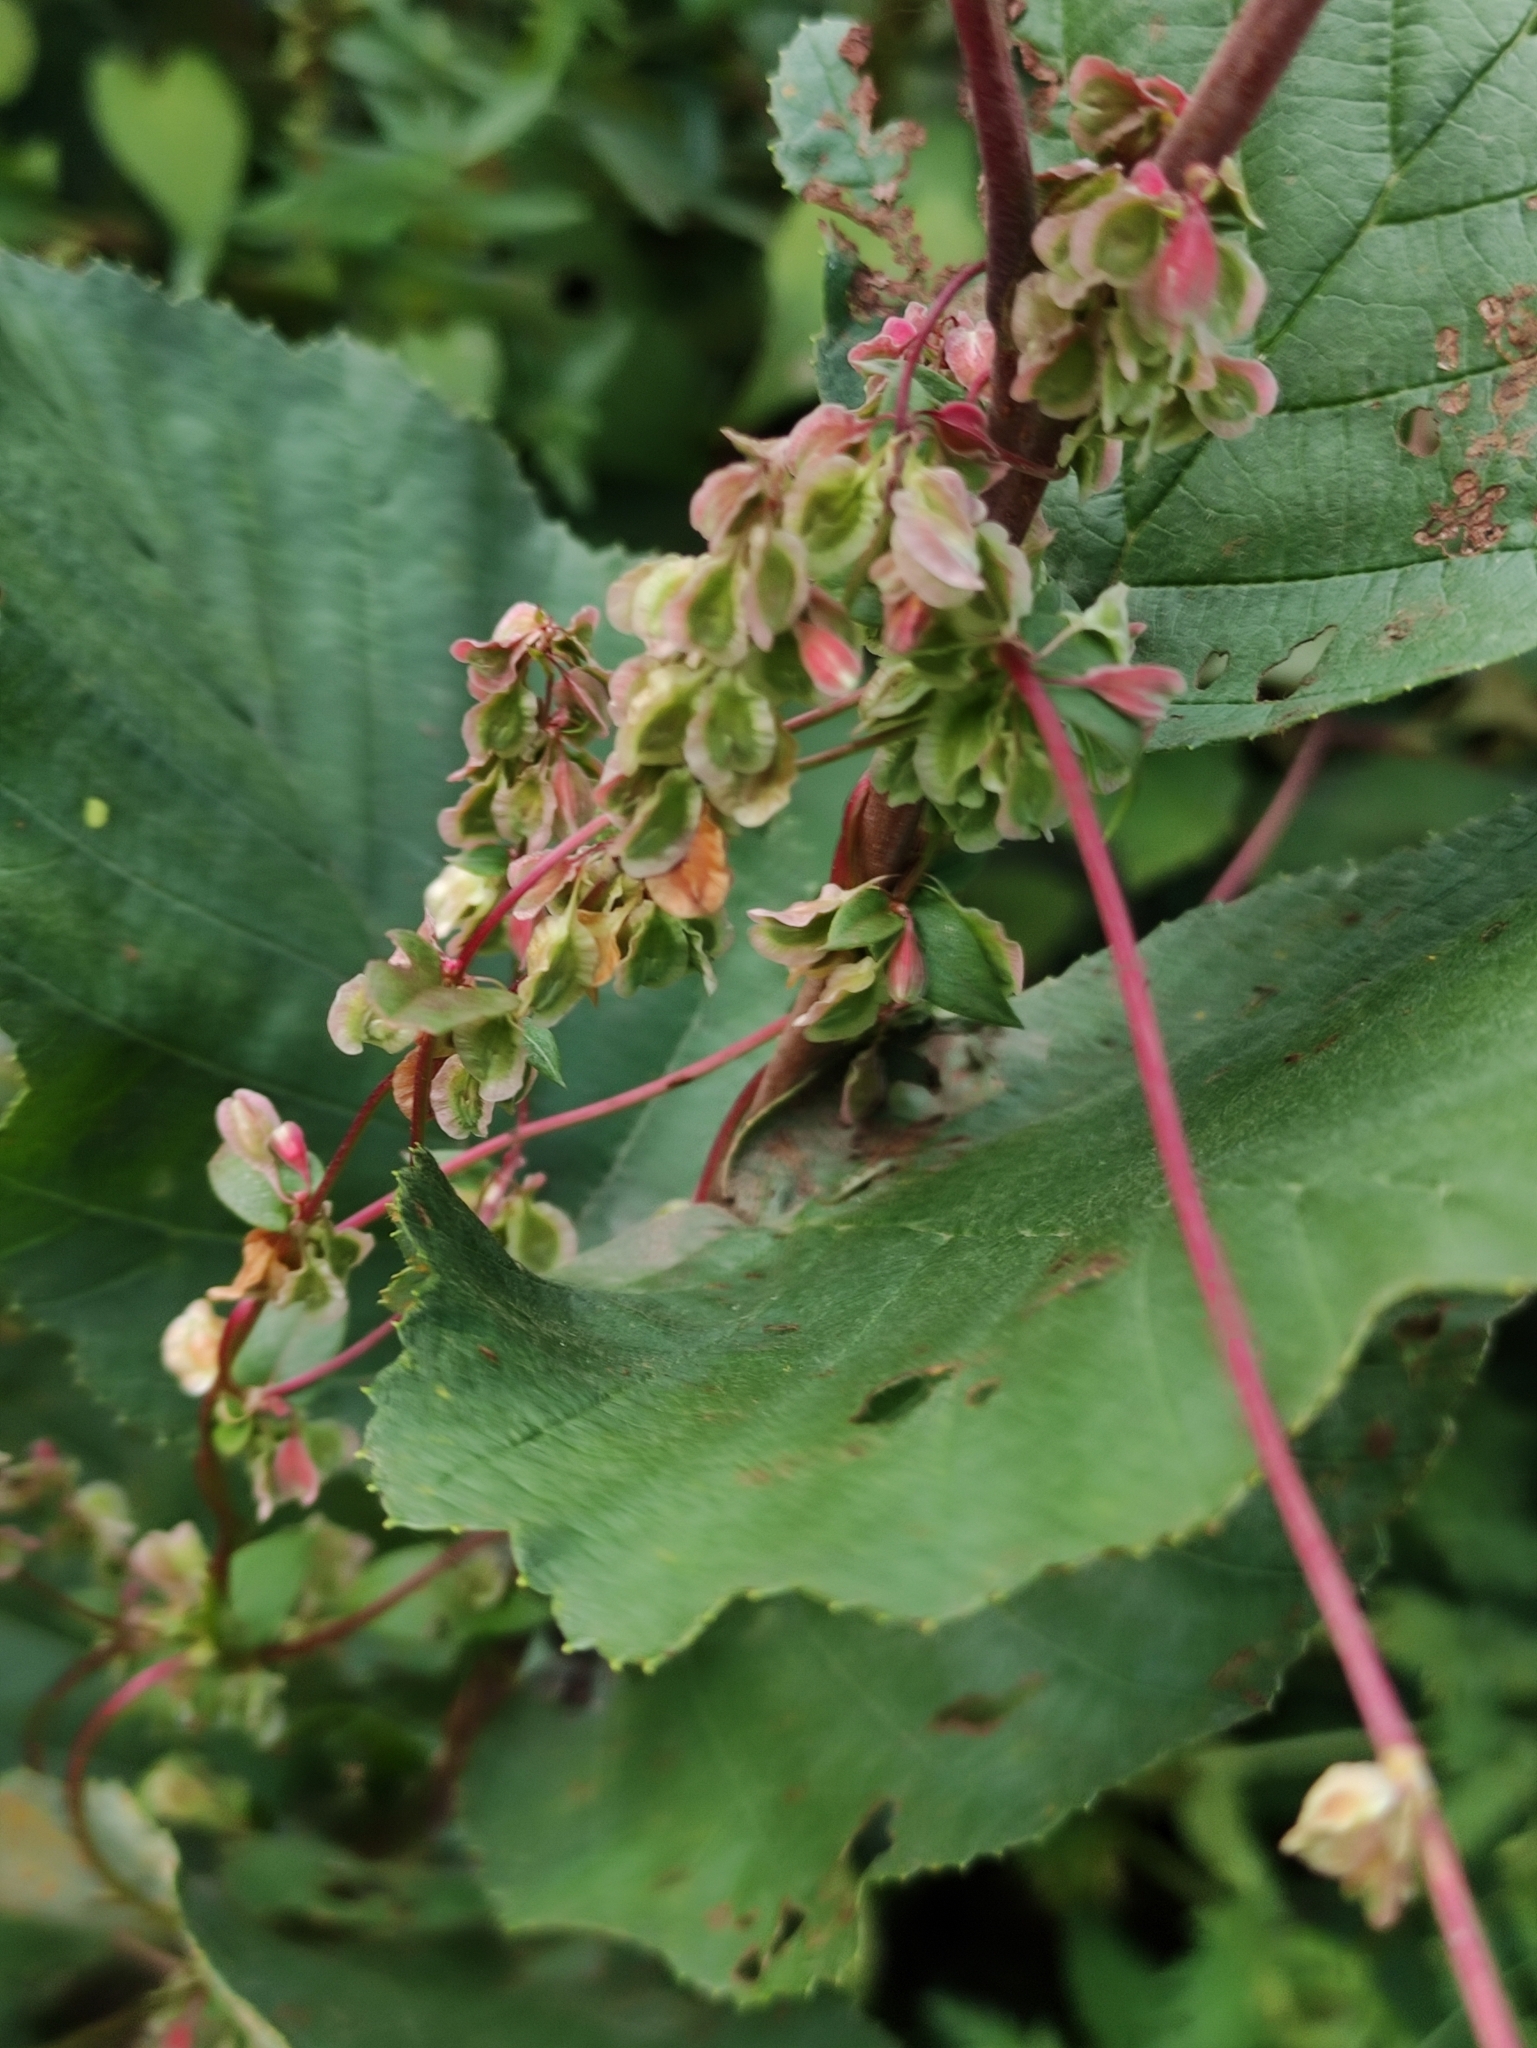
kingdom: Plantae
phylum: Tracheophyta
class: Magnoliopsida
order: Caryophyllales
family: Polygonaceae
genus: Fallopia
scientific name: Fallopia dumetorum
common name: Copse-bindweed
